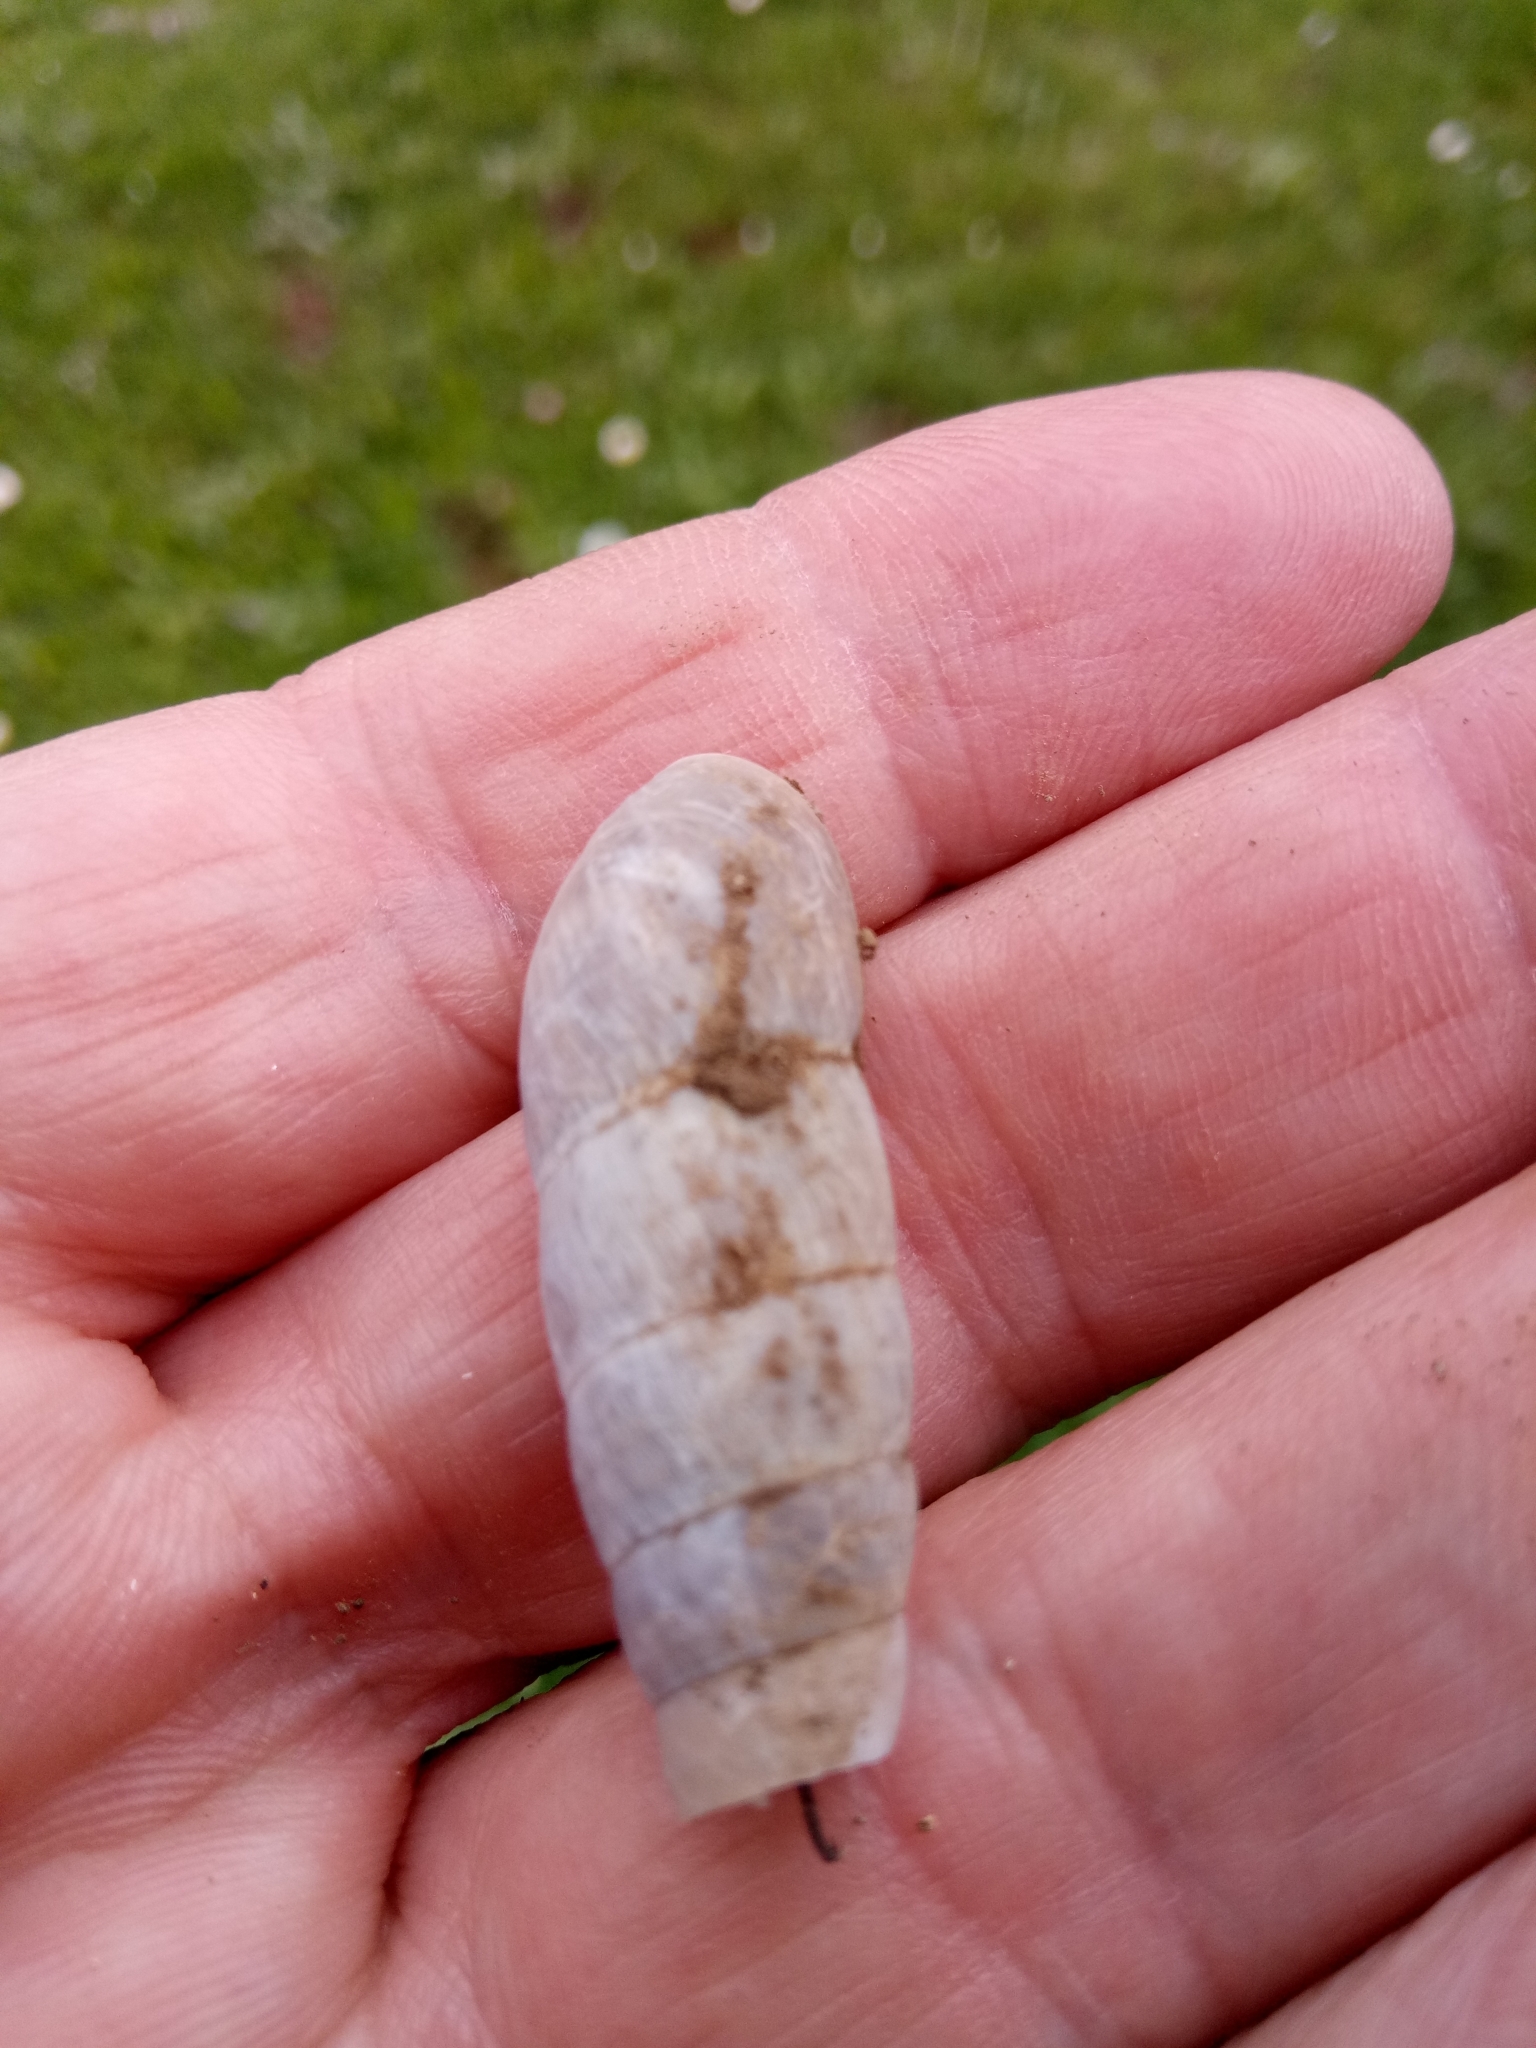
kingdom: Animalia
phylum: Mollusca
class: Gastropoda
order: Stylommatophora
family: Achatinidae
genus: Rumina
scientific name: Rumina decollata
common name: Decollate snail
